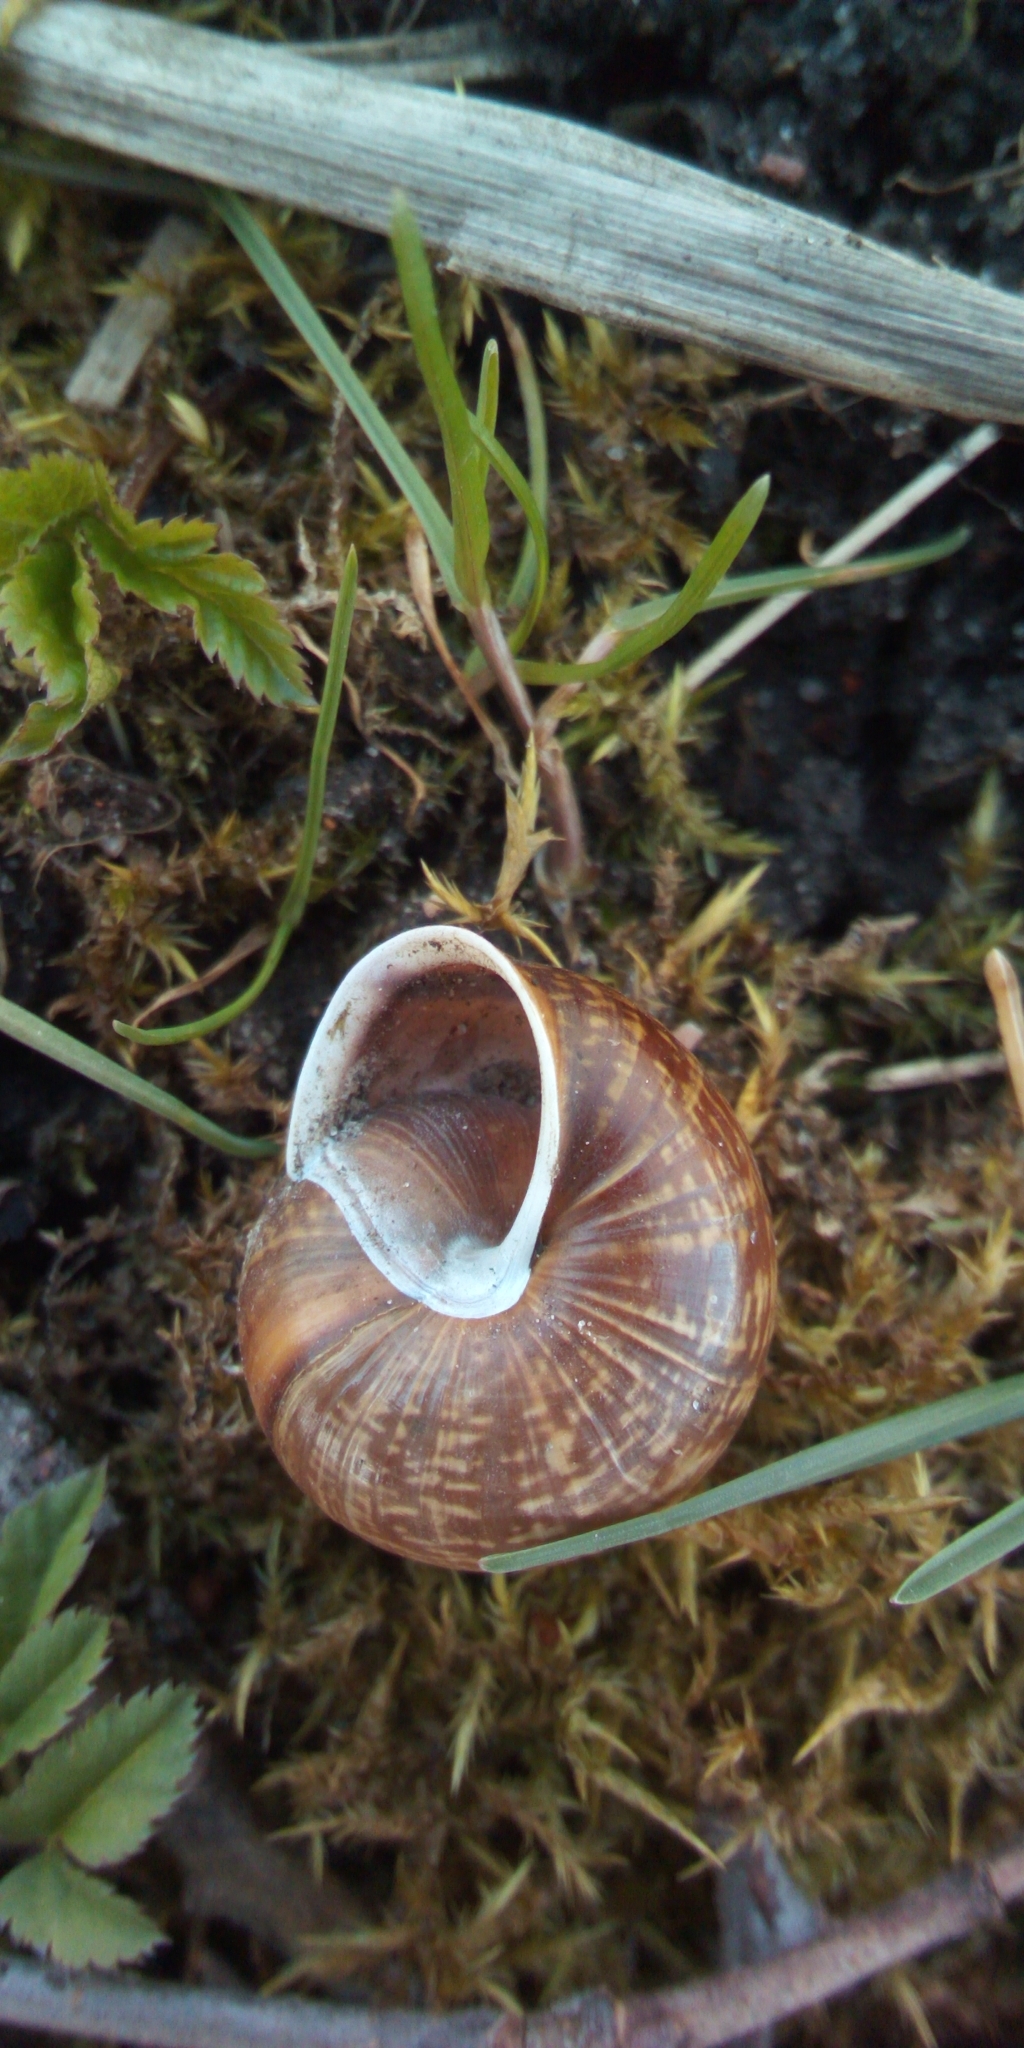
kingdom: Animalia
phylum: Mollusca
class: Gastropoda
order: Stylommatophora
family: Helicidae
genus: Arianta
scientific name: Arianta arbustorum
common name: Copse snail
